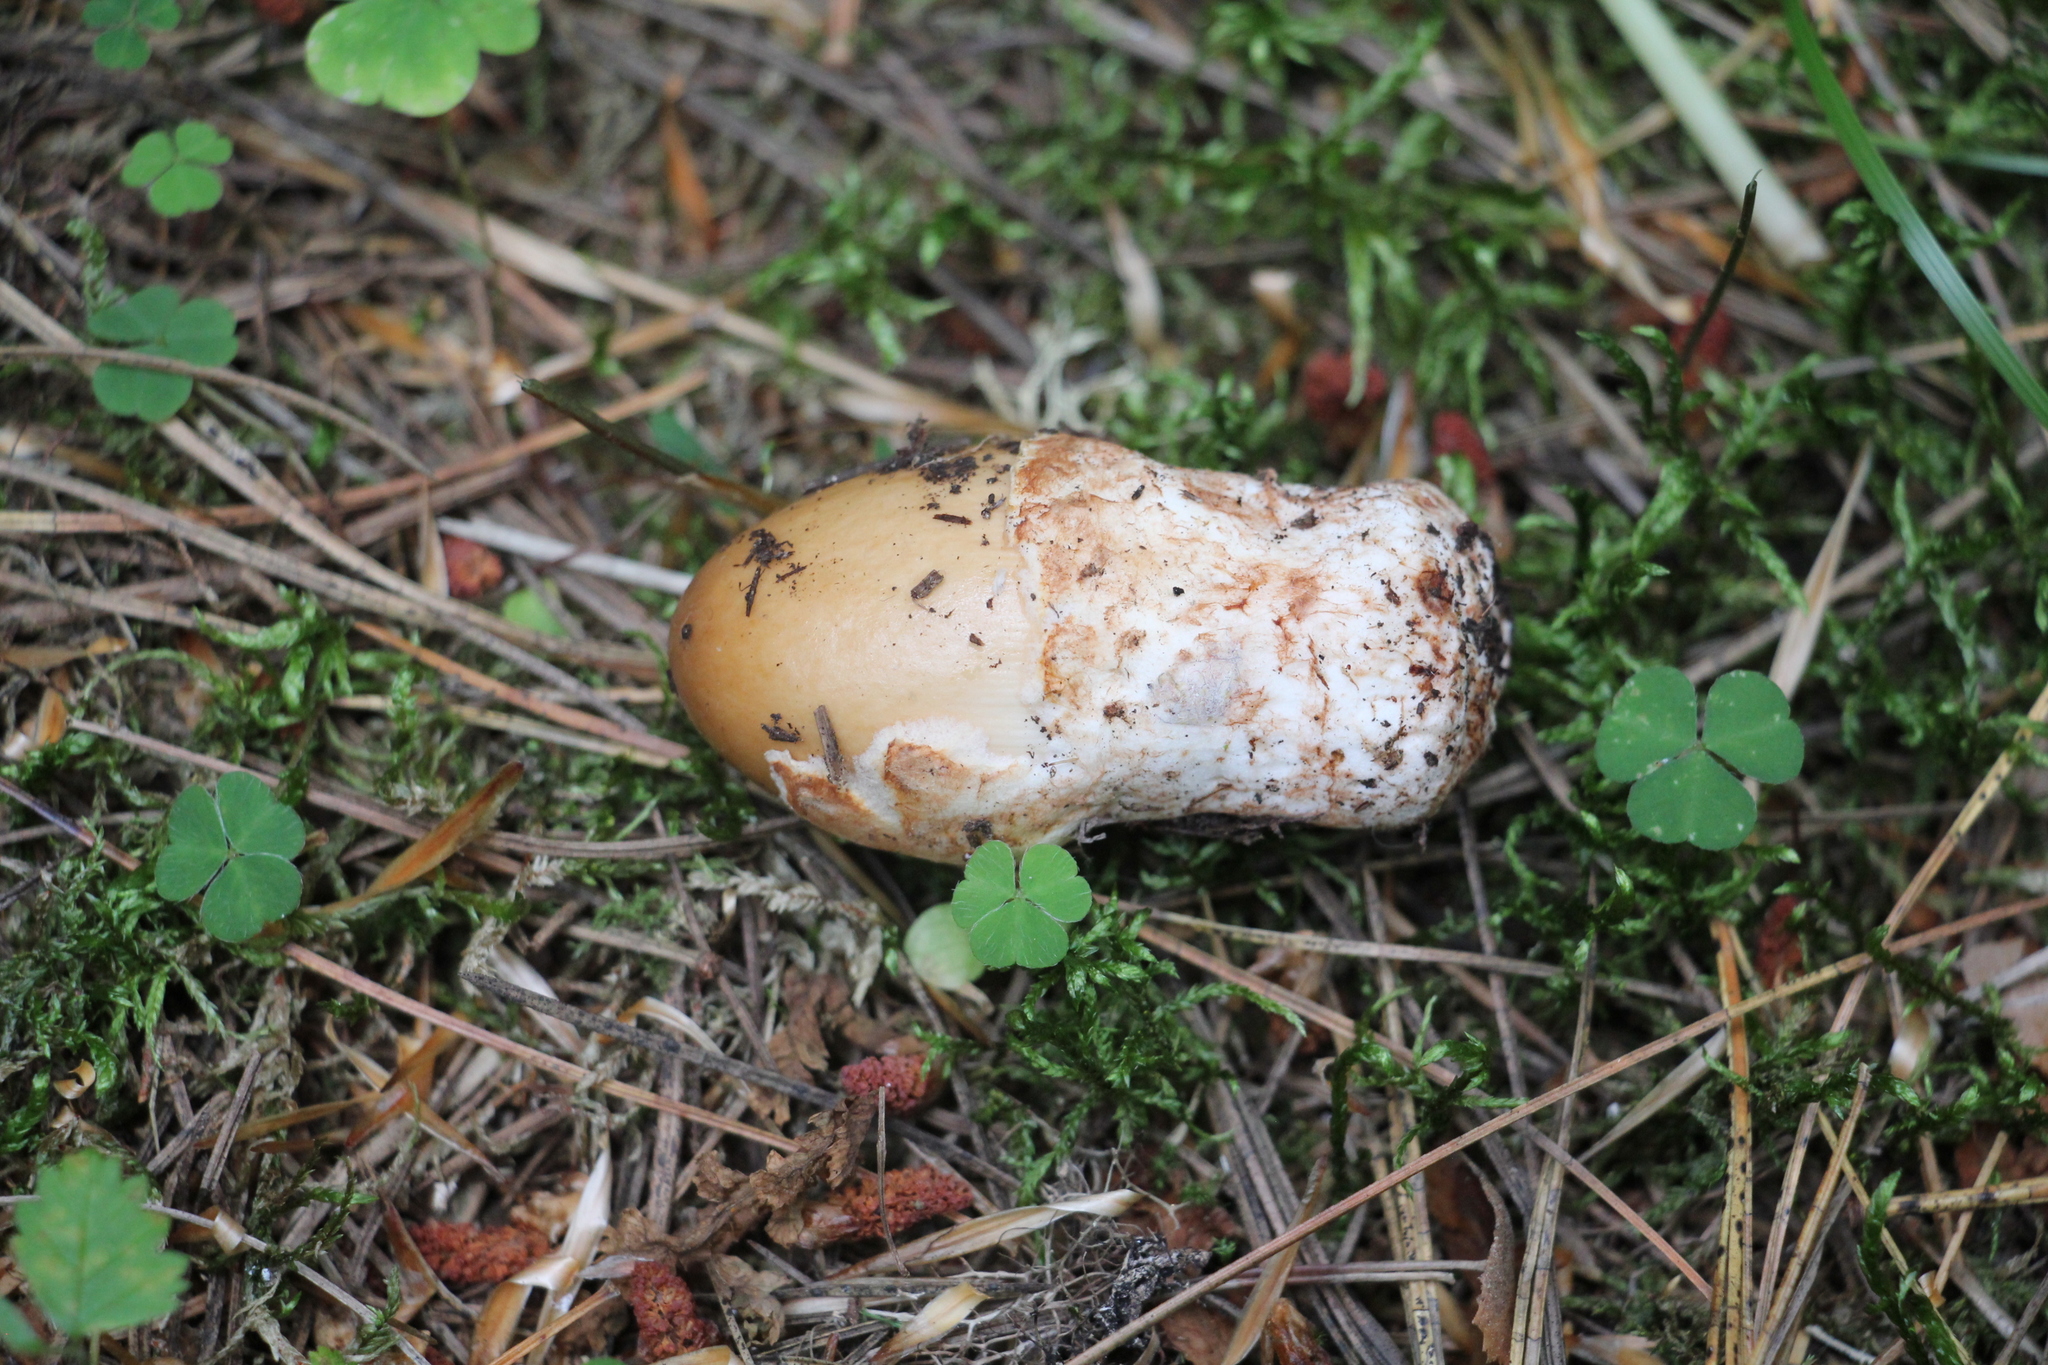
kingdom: Fungi
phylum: Basidiomycota
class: Agaricomycetes
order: Agaricales
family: Amanitaceae
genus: Amanita
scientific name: Amanita fulva
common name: Tawny grisette
